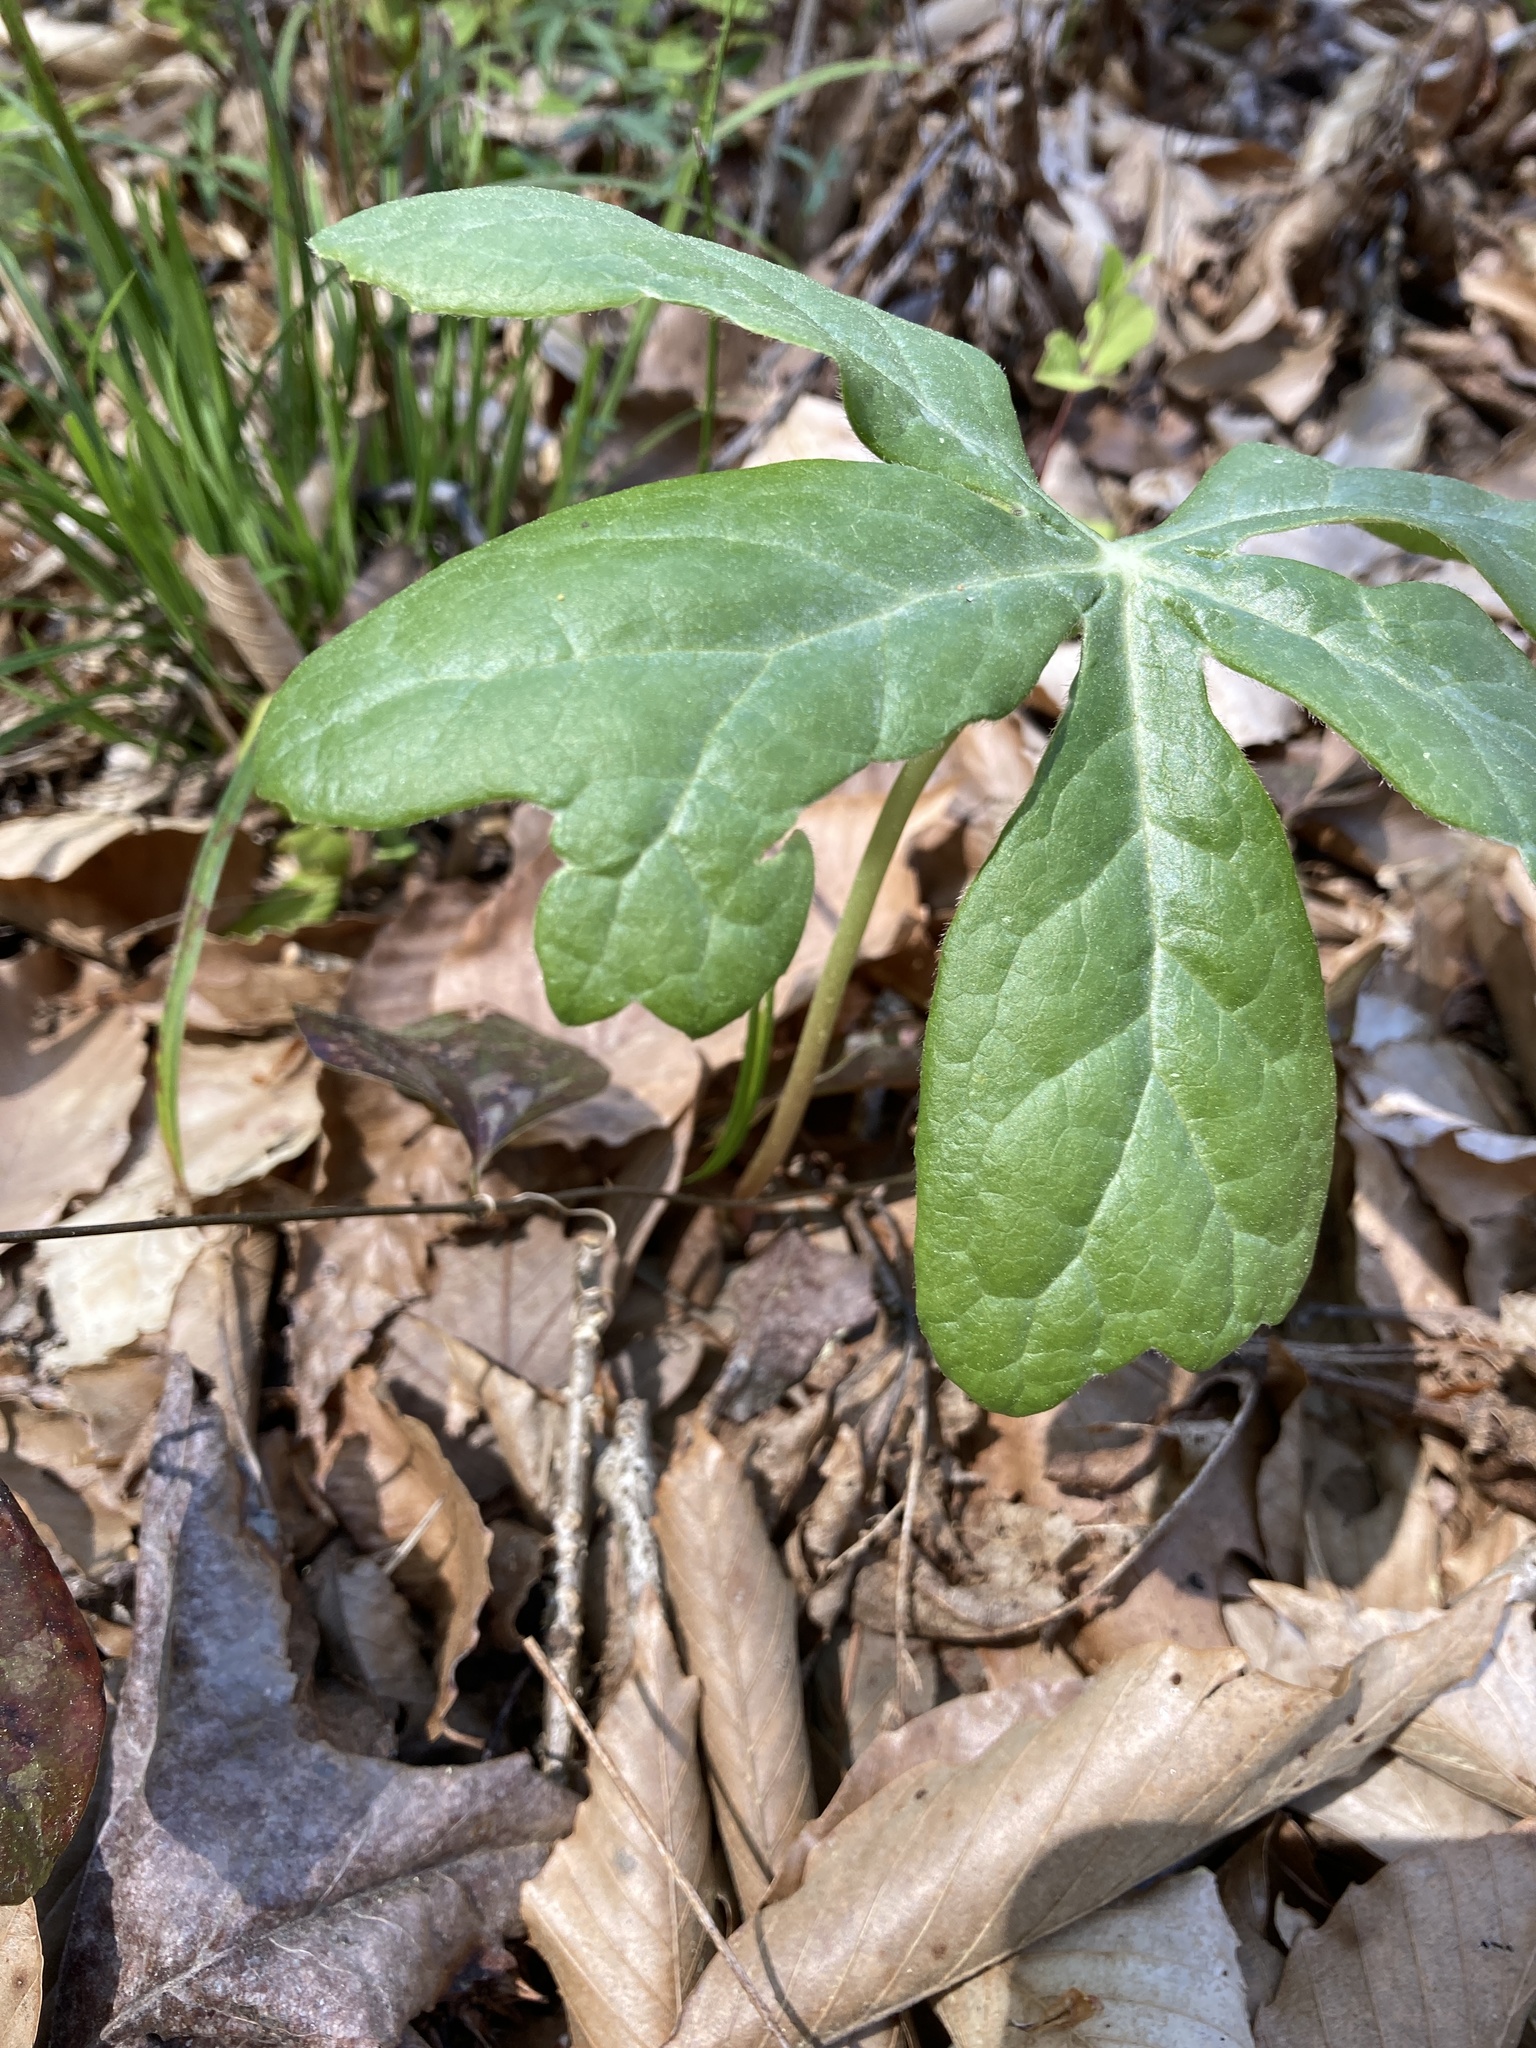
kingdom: Plantae
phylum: Tracheophyta
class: Magnoliopsida
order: Ranunculales
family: Berberidaceae
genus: Podophyllum
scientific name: Podophyllum peltatum
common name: Wild mandrake
